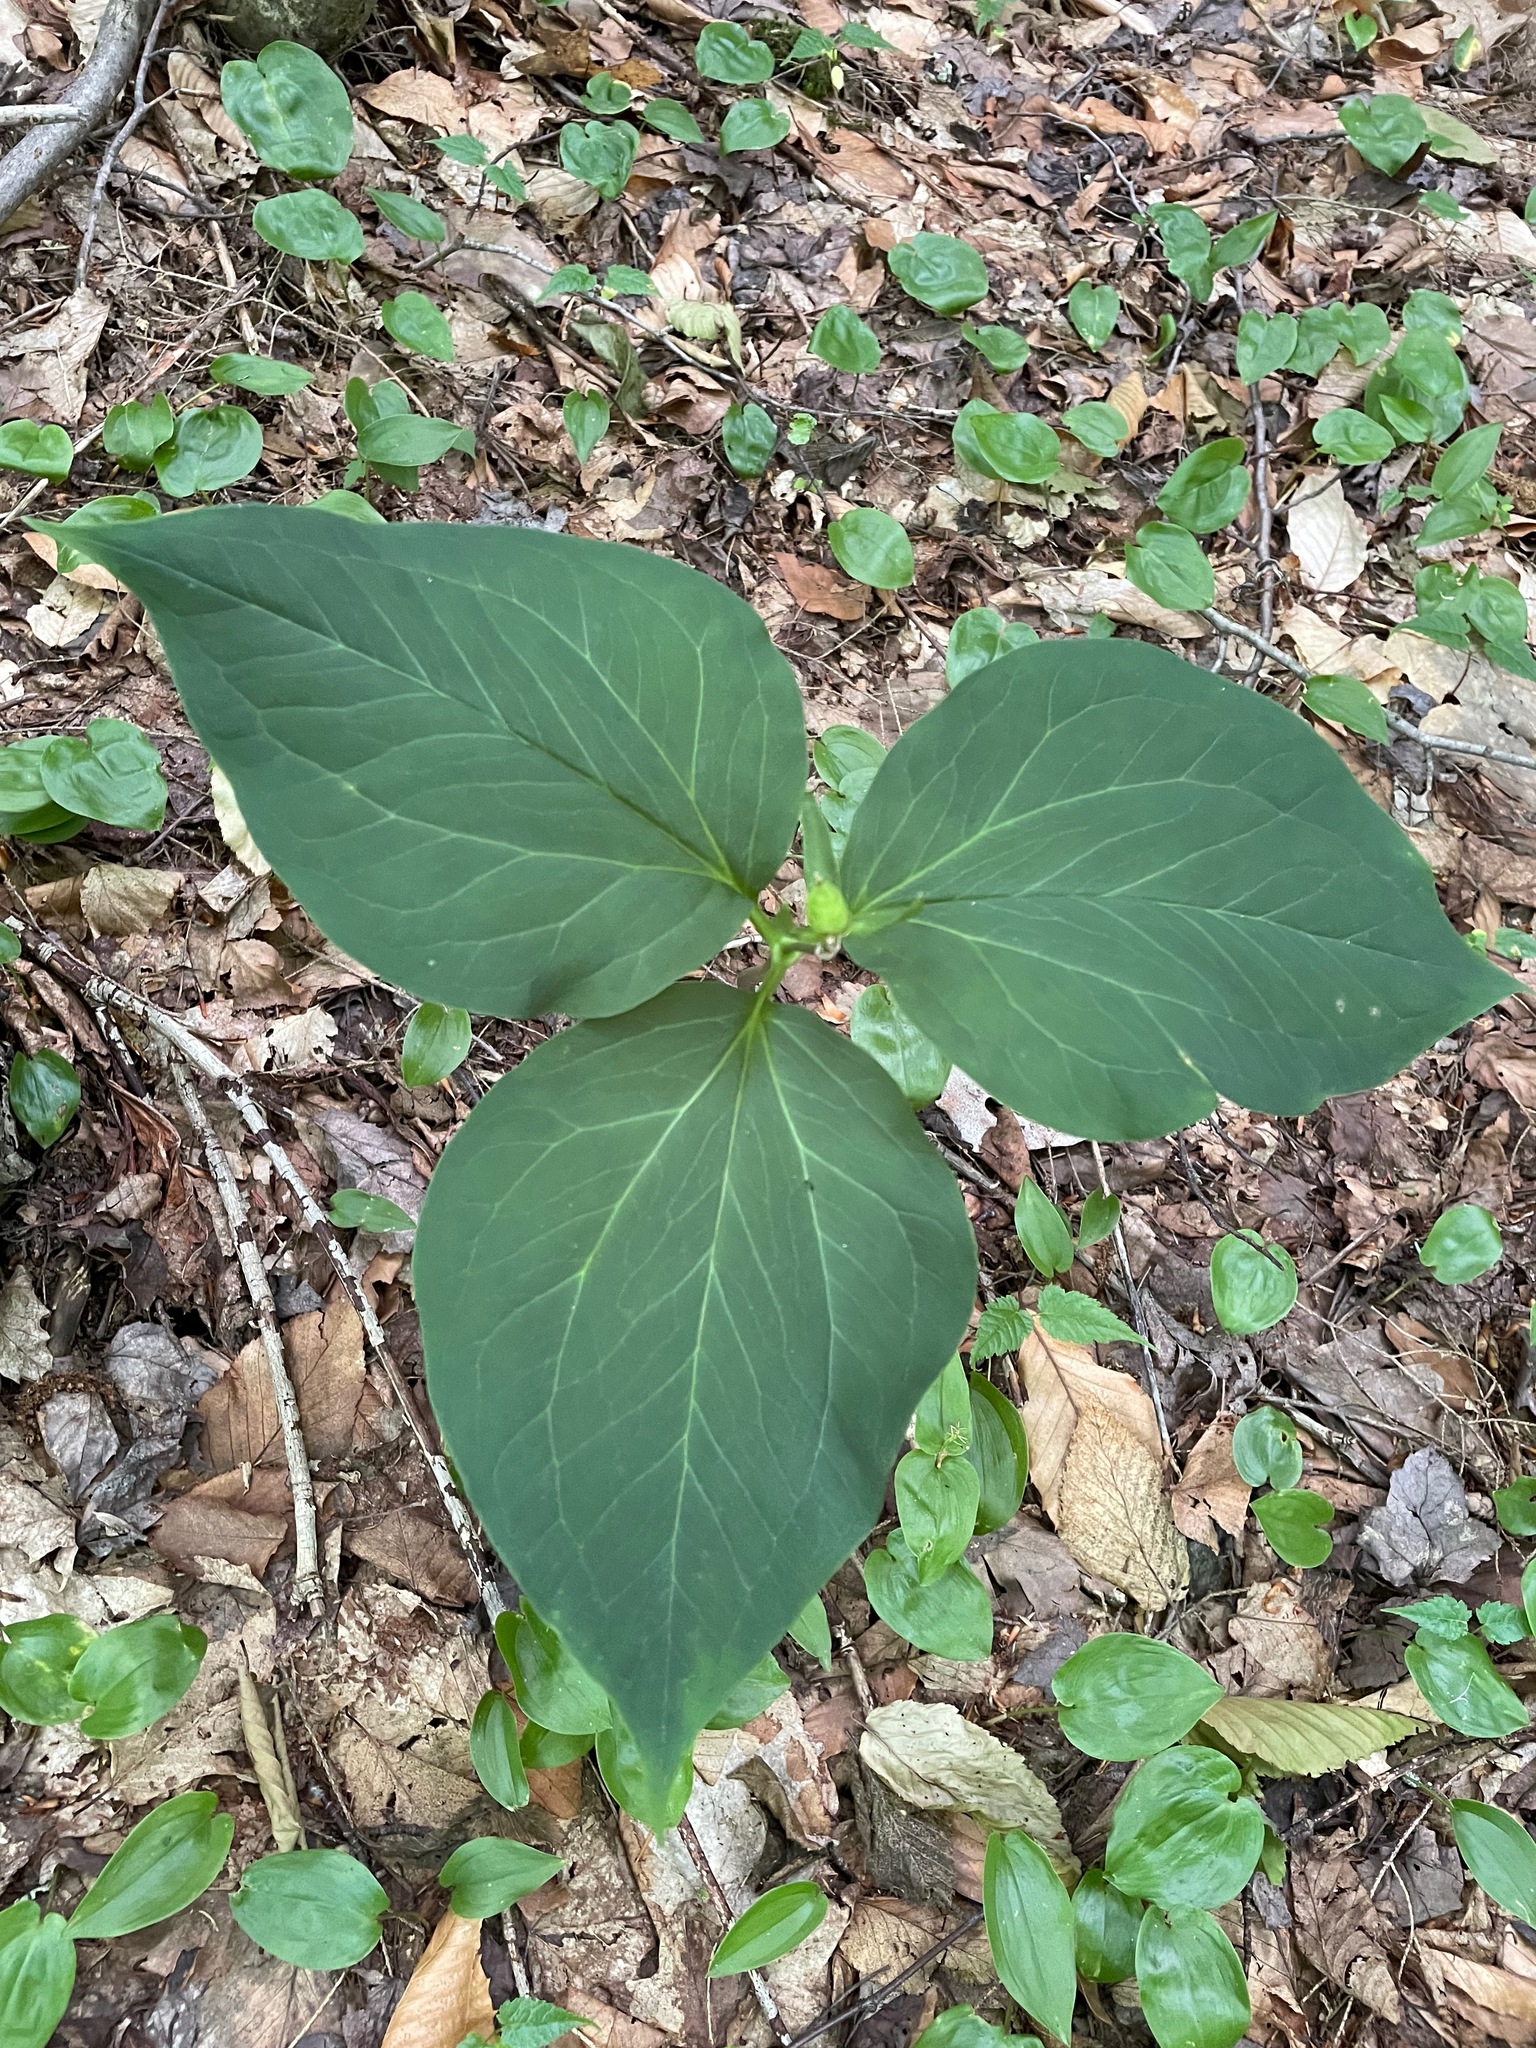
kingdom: Plantae
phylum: Tracheophyta
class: Liliopsida
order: Liliales
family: Melanthiaceae
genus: Trillium
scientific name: Trillium undulatum
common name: Paint trillium
